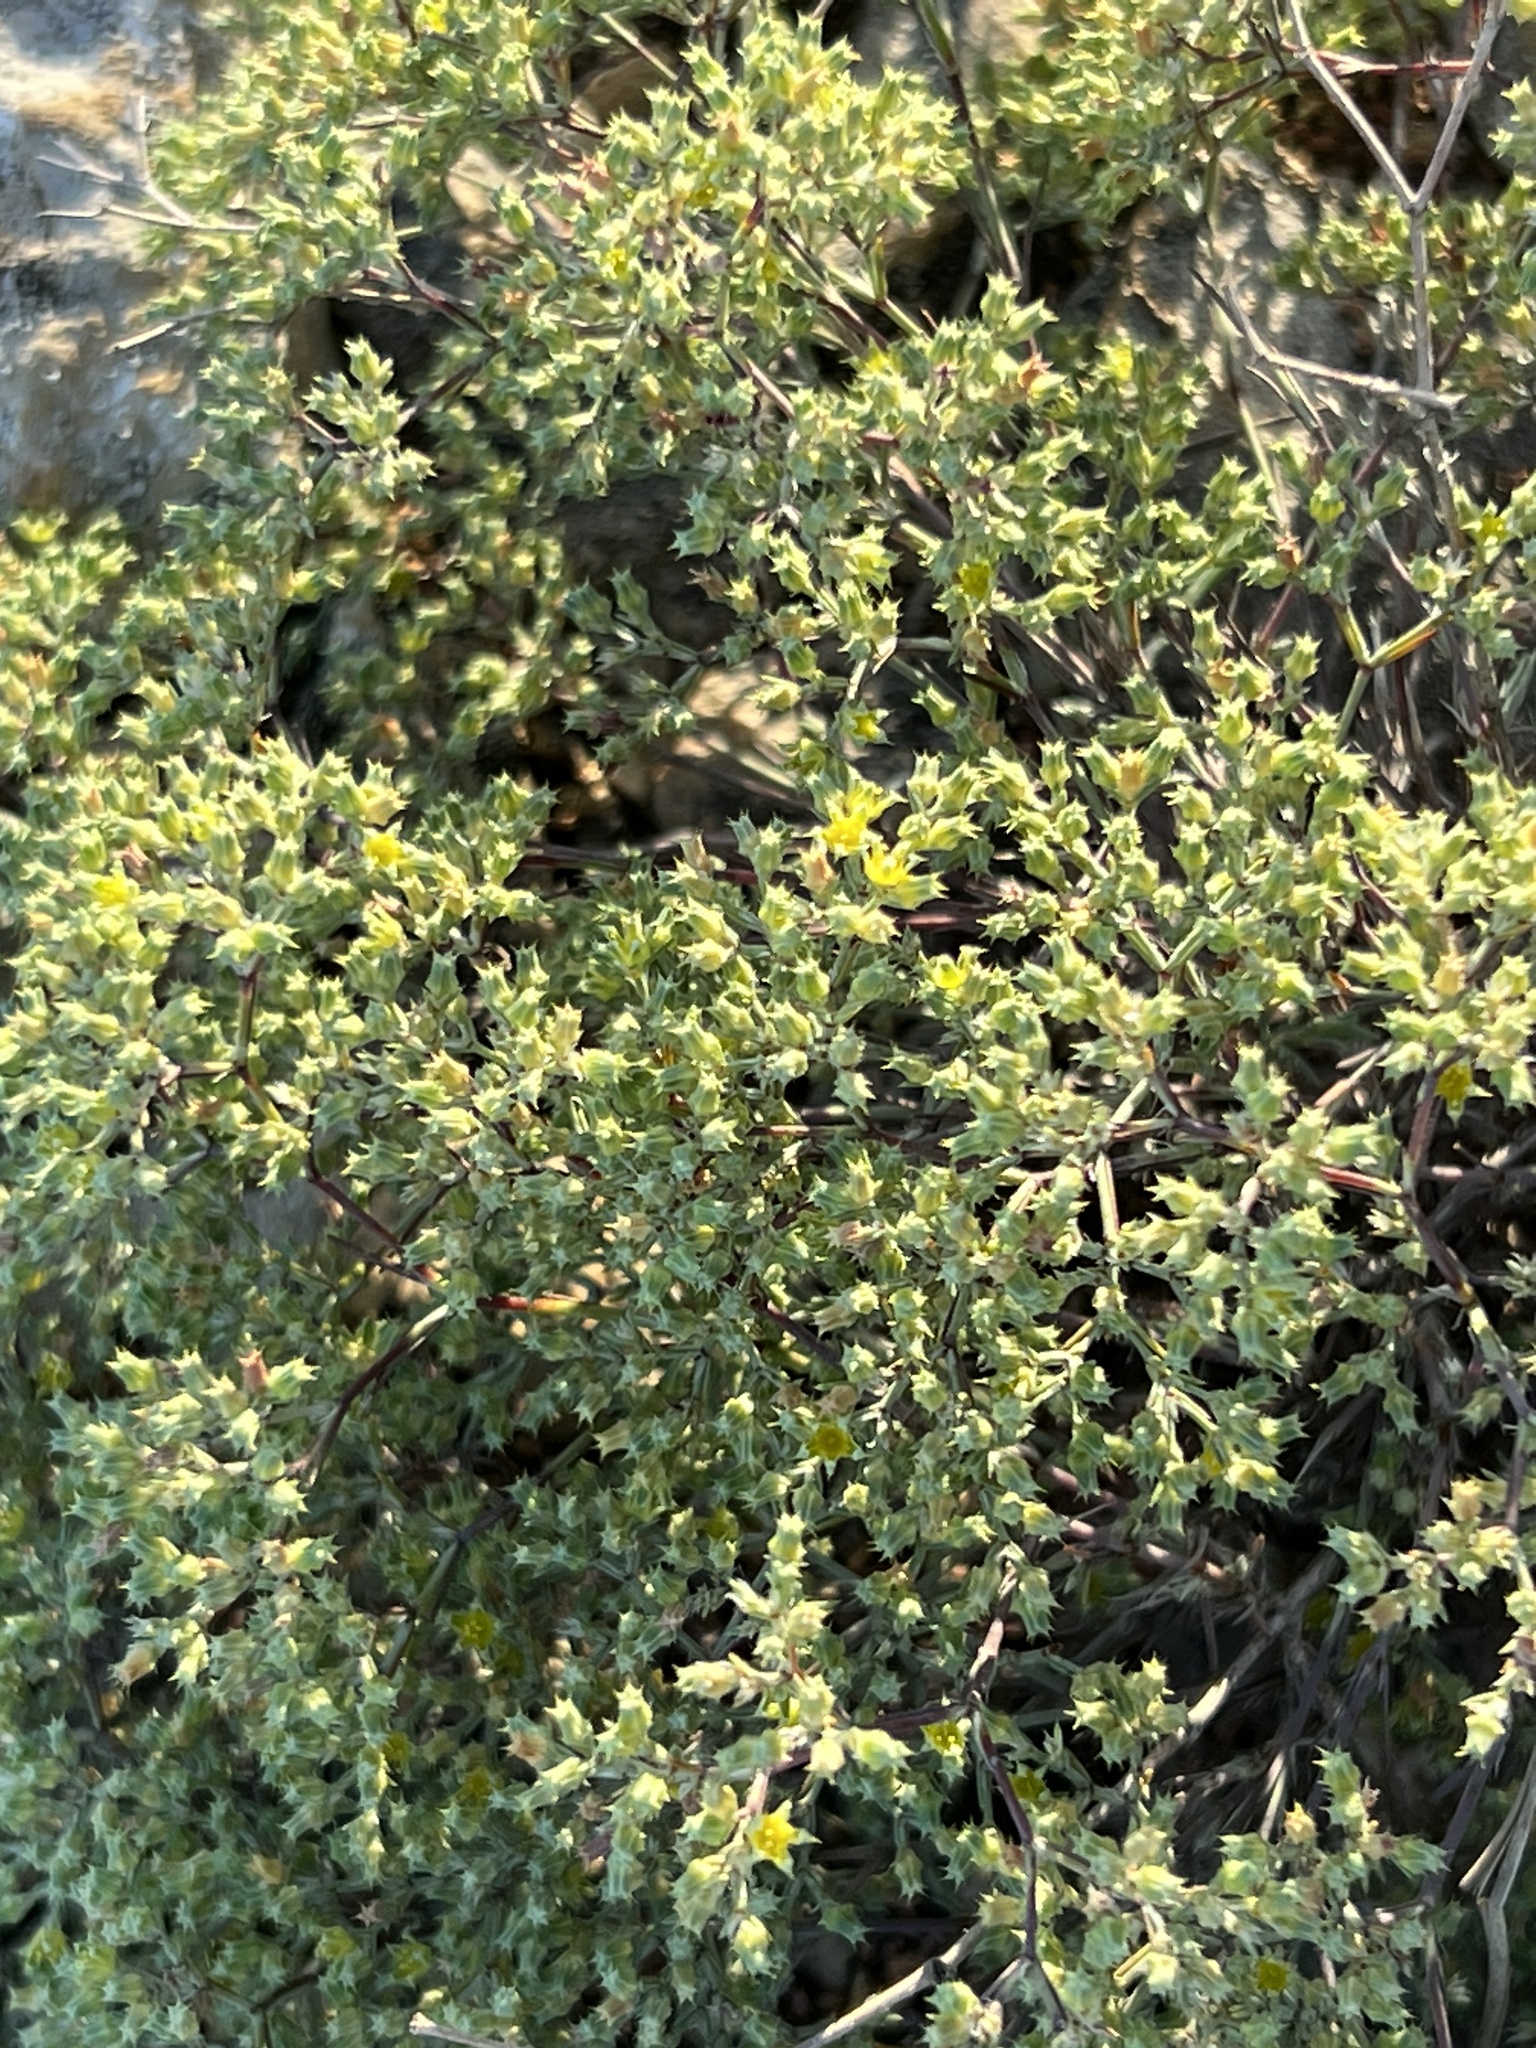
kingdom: Plantae
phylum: Tracheophyta
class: Magnoliopsida
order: Caryophyllales
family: Caryophyllaceae
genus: Paronychia
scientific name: Paronychia jamesii
